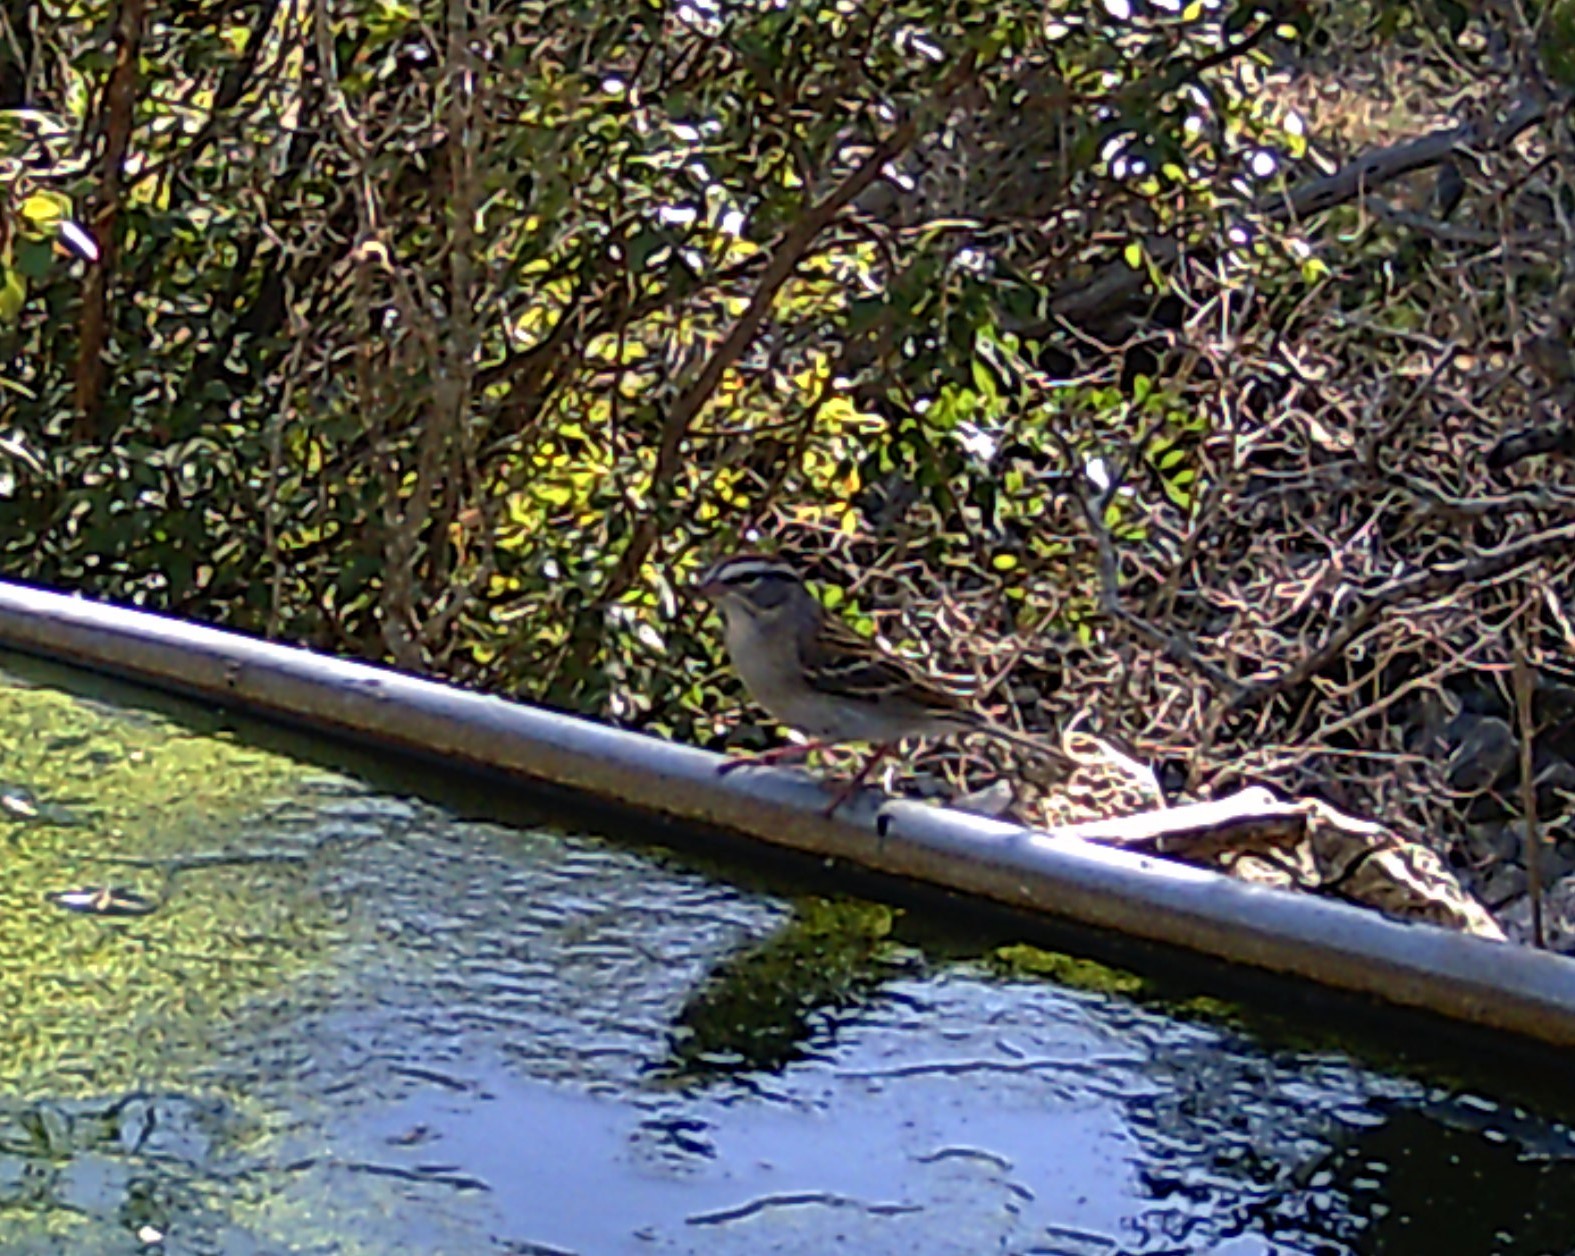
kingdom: Animalia
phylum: Chordata
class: Aves
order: Passeriformes
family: Passerellidae
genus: Spizella
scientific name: Spizella passerina
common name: Chipping sparrow
